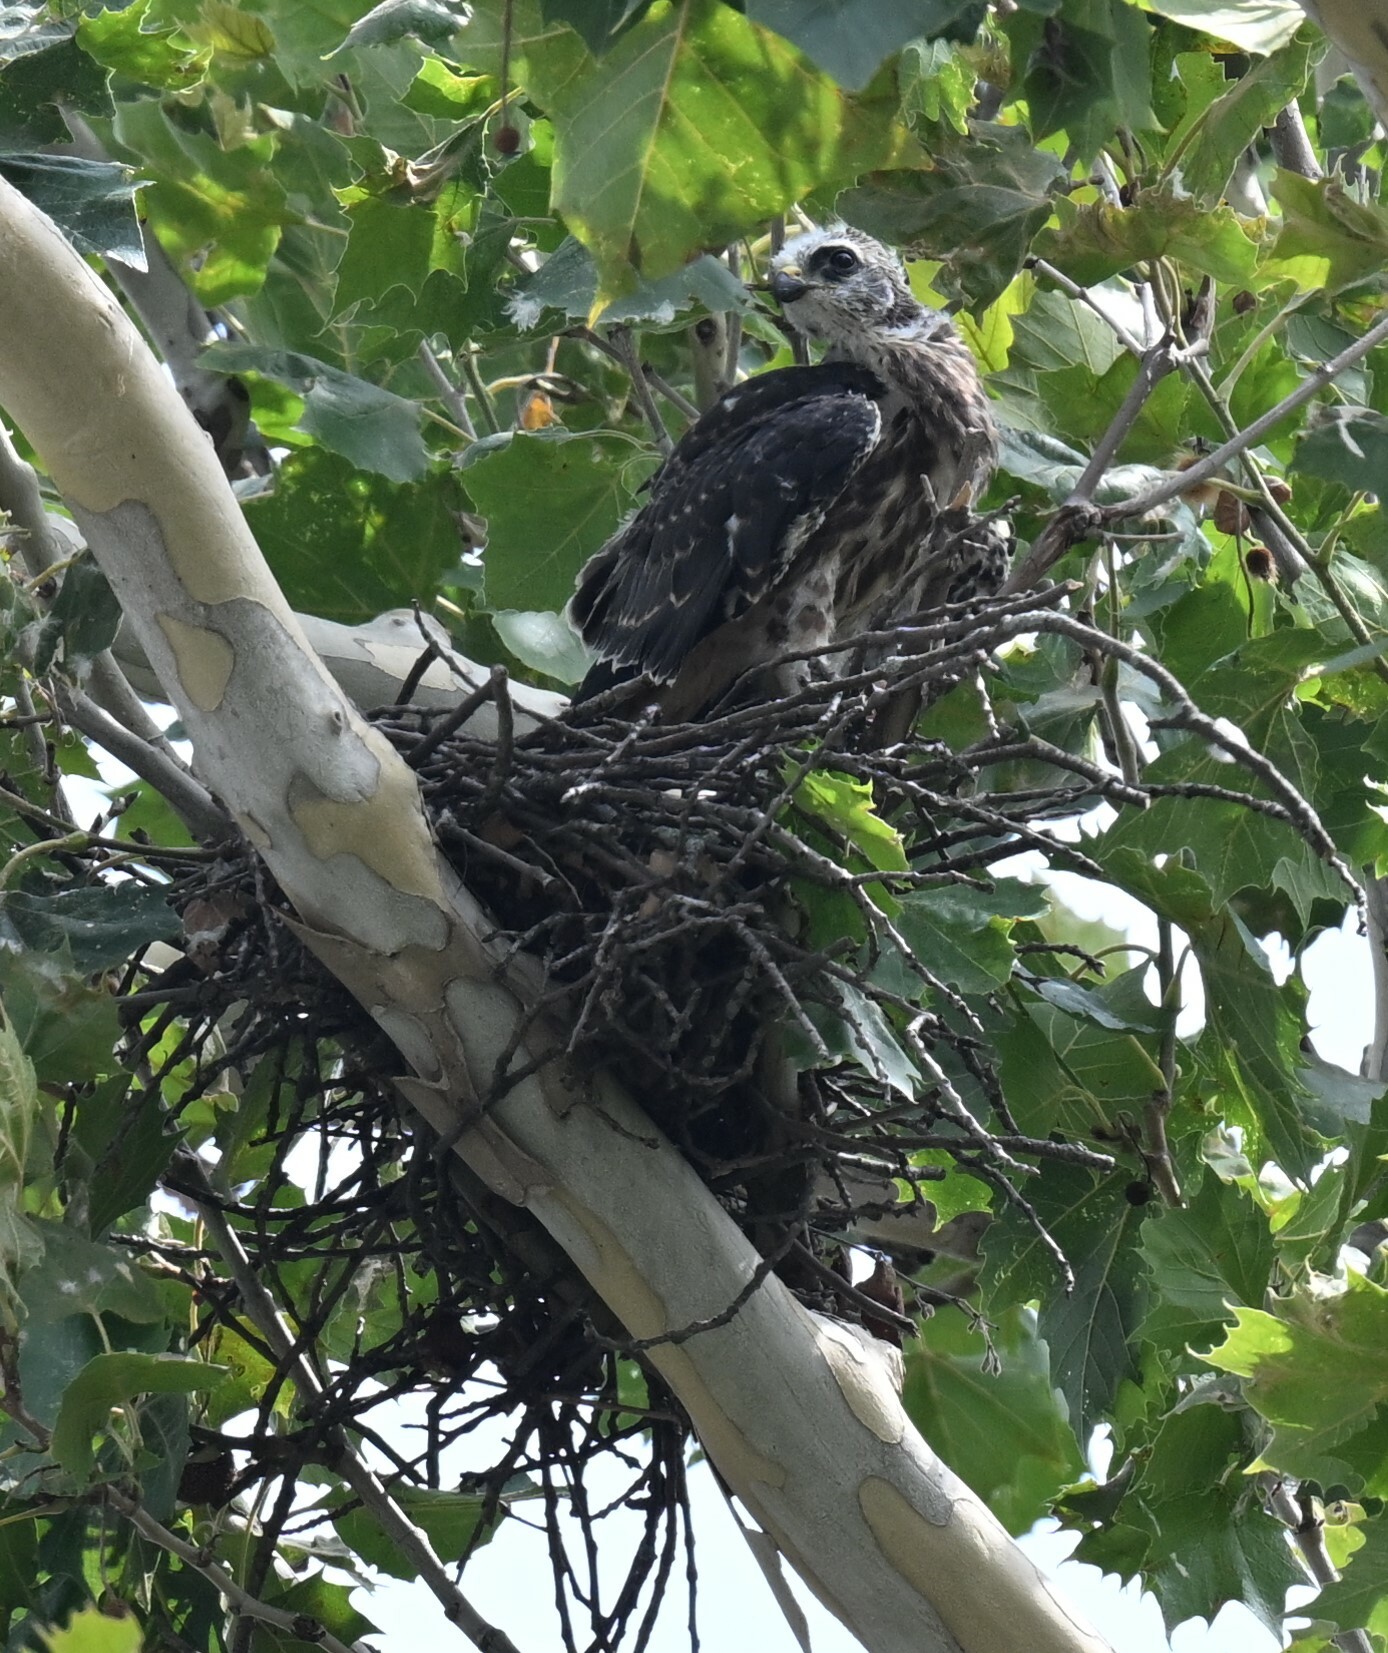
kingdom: Animalia
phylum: Chordata
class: Aves
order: Accipitriformes
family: Accipitridae
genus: Ictinia
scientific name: Ictinia mississippiensis
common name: Mississippi kite
